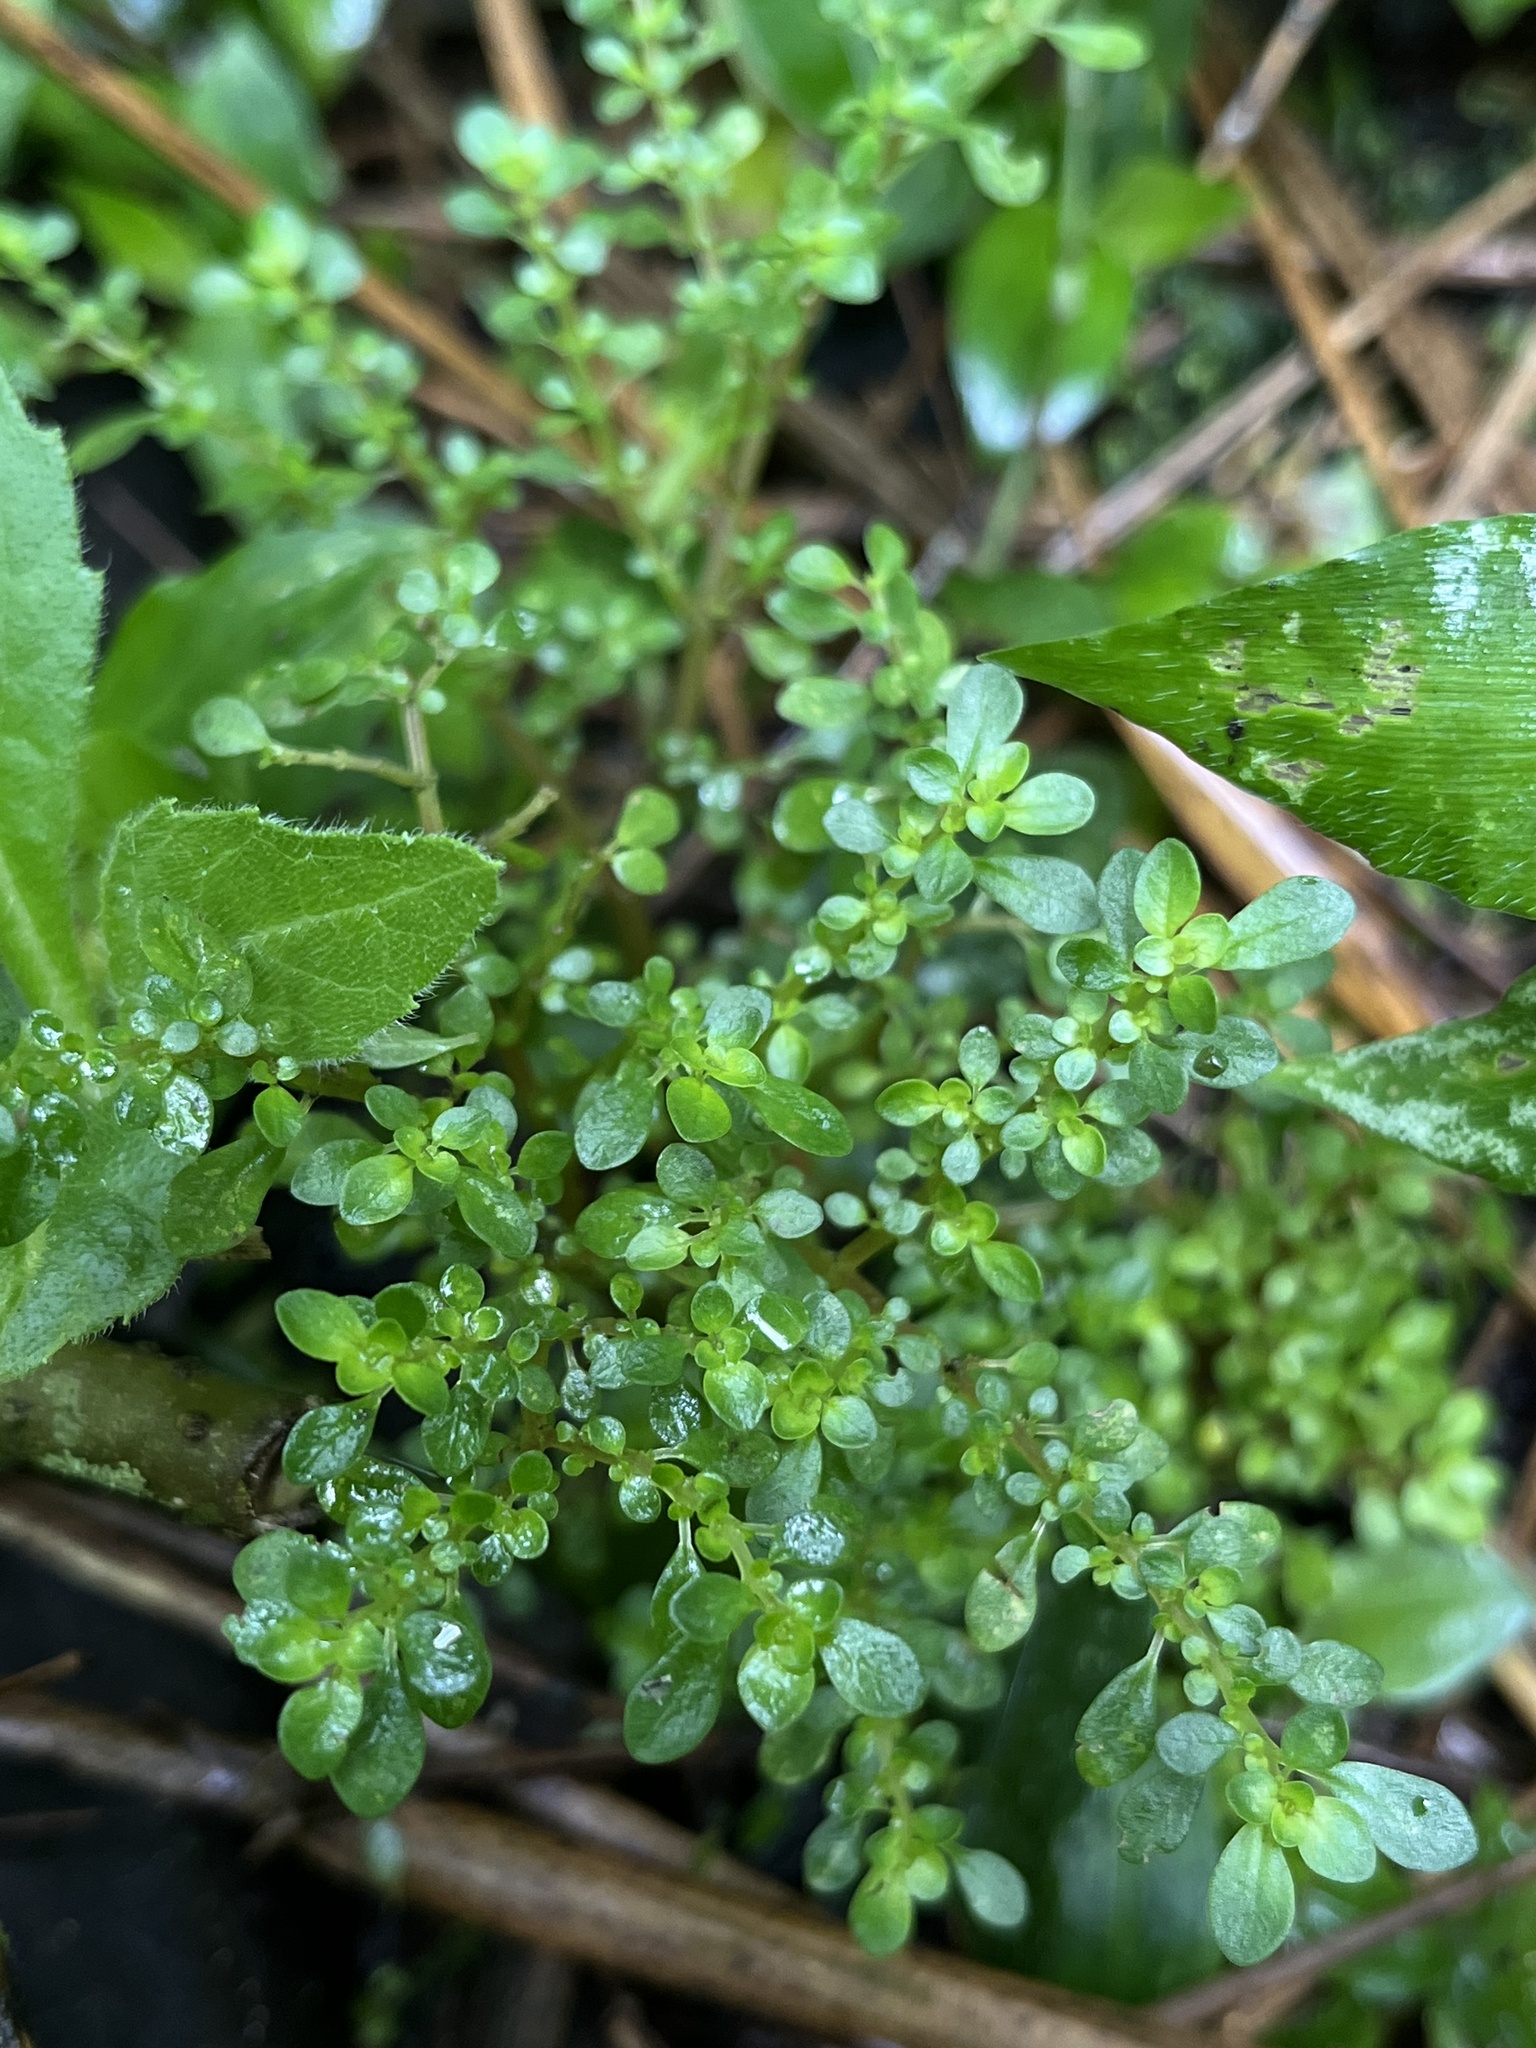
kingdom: Plantae
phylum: Tracheophyta
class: Magnoliopsida
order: Rosales
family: Urticaceae
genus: Pilea
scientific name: Pilea microphylla
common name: Artillery-plant
